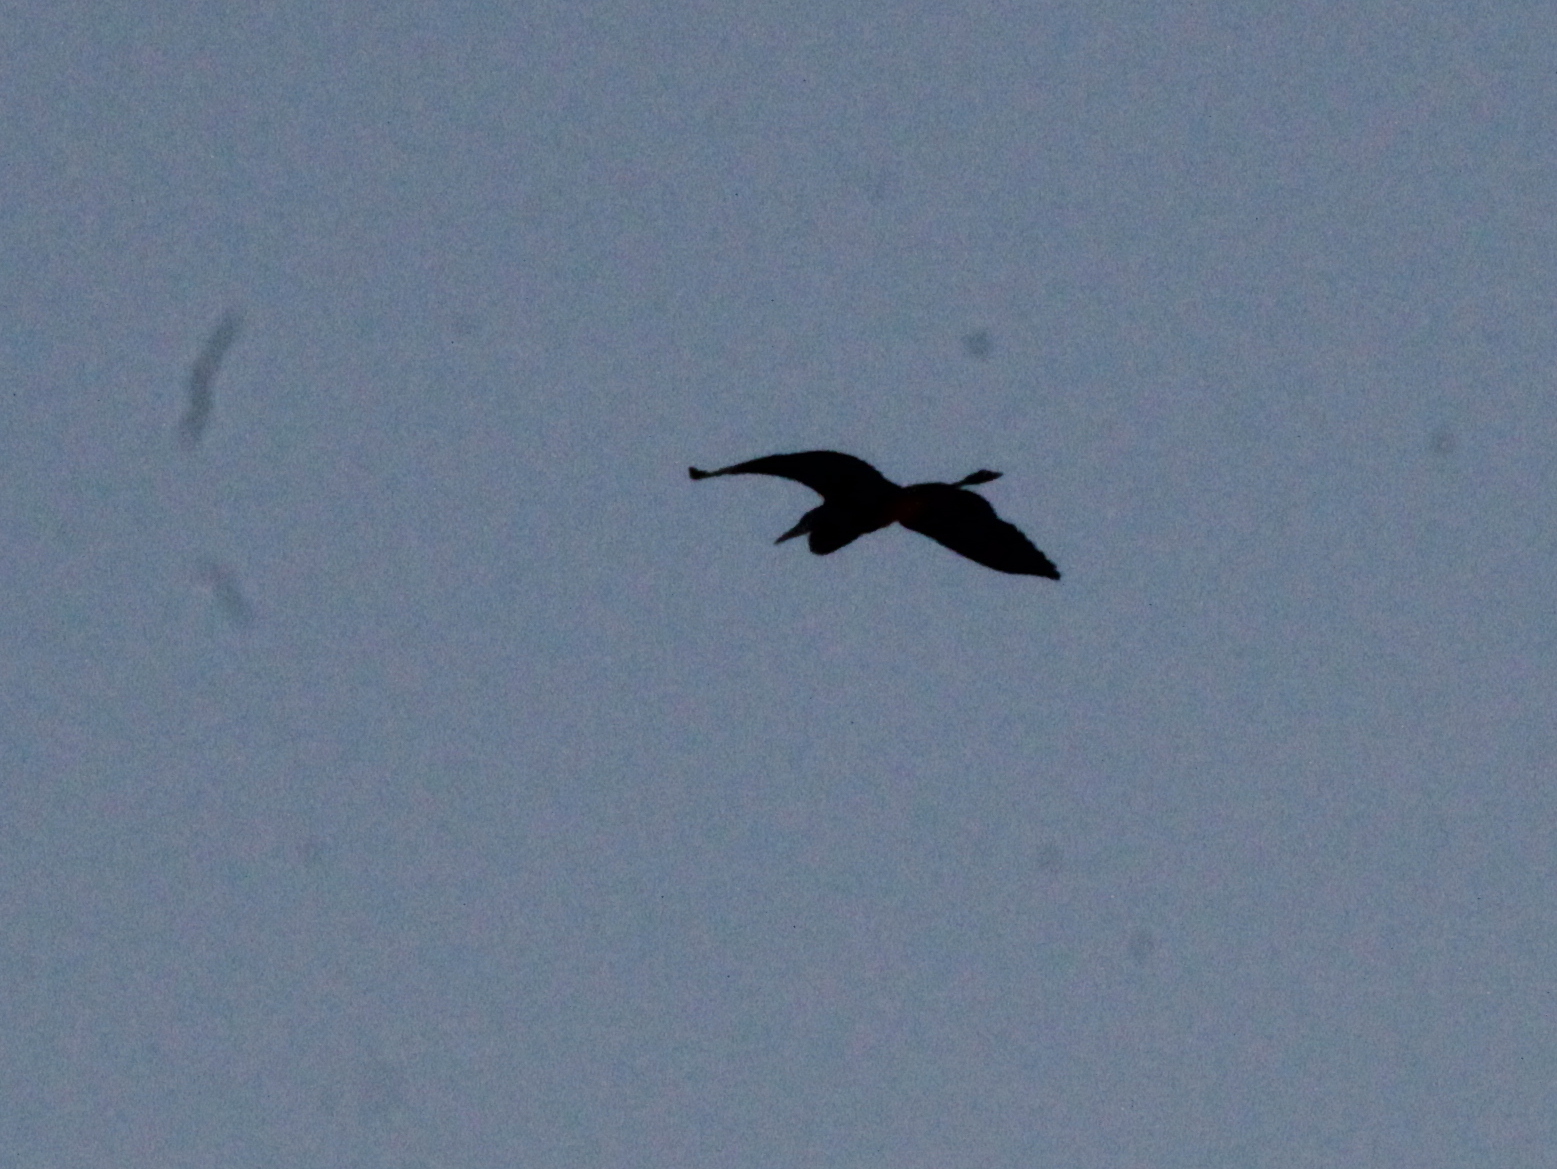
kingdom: Animalia
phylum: Chordata
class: Aves
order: Pelecaniformes
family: Ardeidae
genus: Ardea
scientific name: Ardea herodias
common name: Great blue heron
